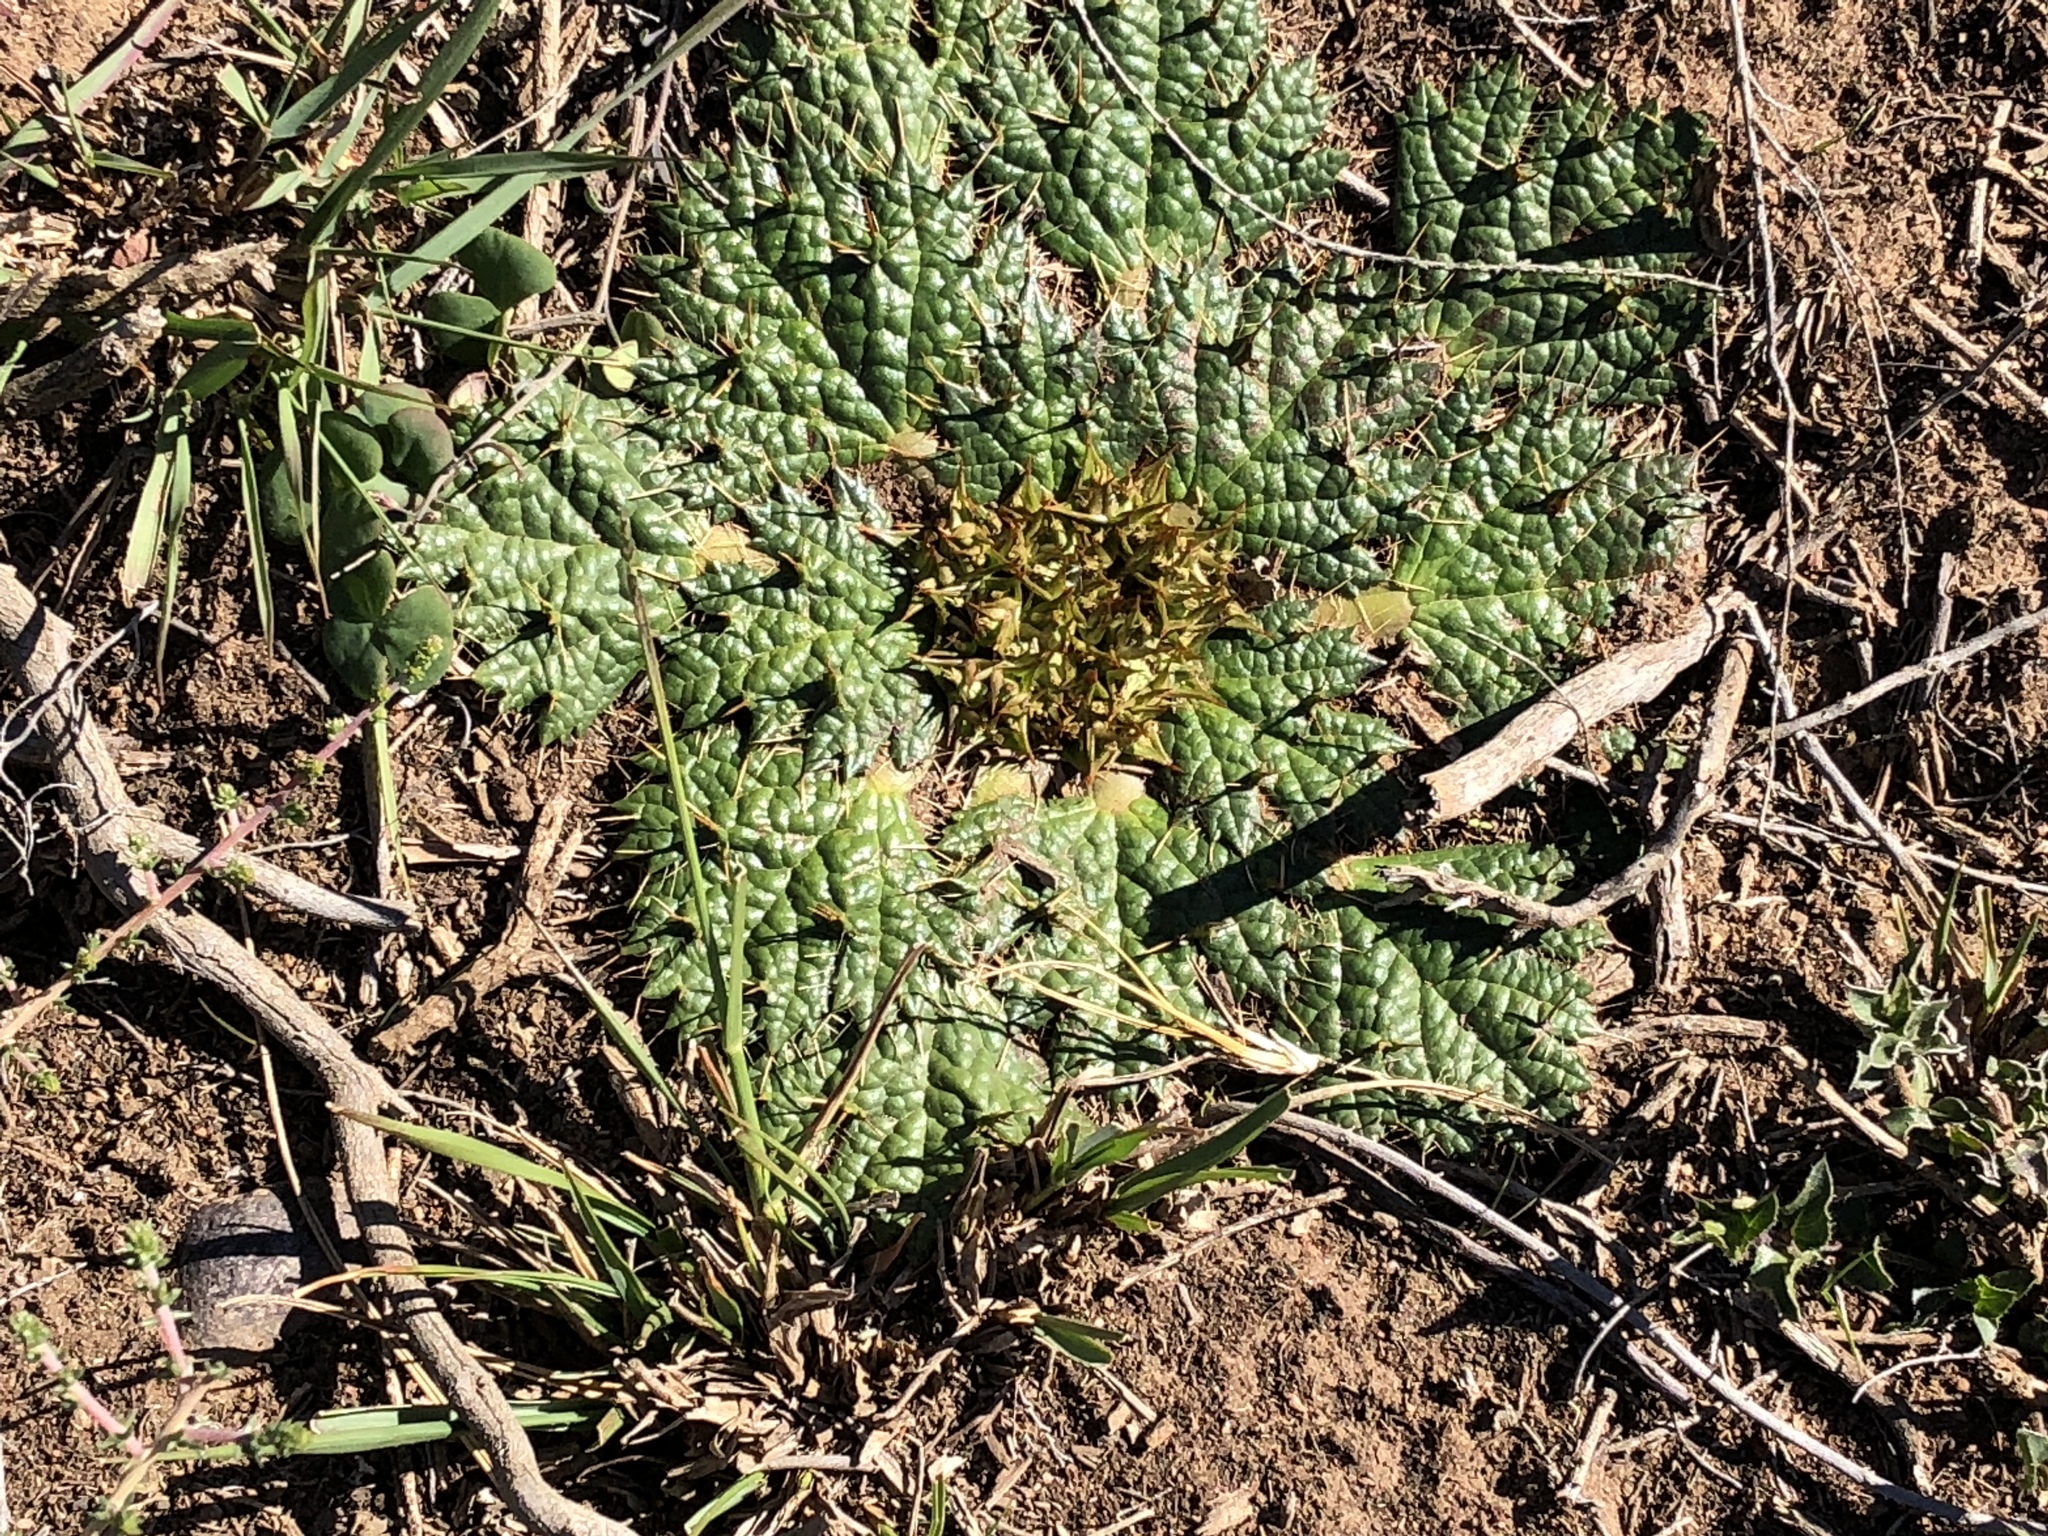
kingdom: Plantae
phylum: Tracheophyta
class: Magnoliopsida
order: Apiales
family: Apiaceae
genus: Arctopus
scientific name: Arctopus echinatus
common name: Platdoring
